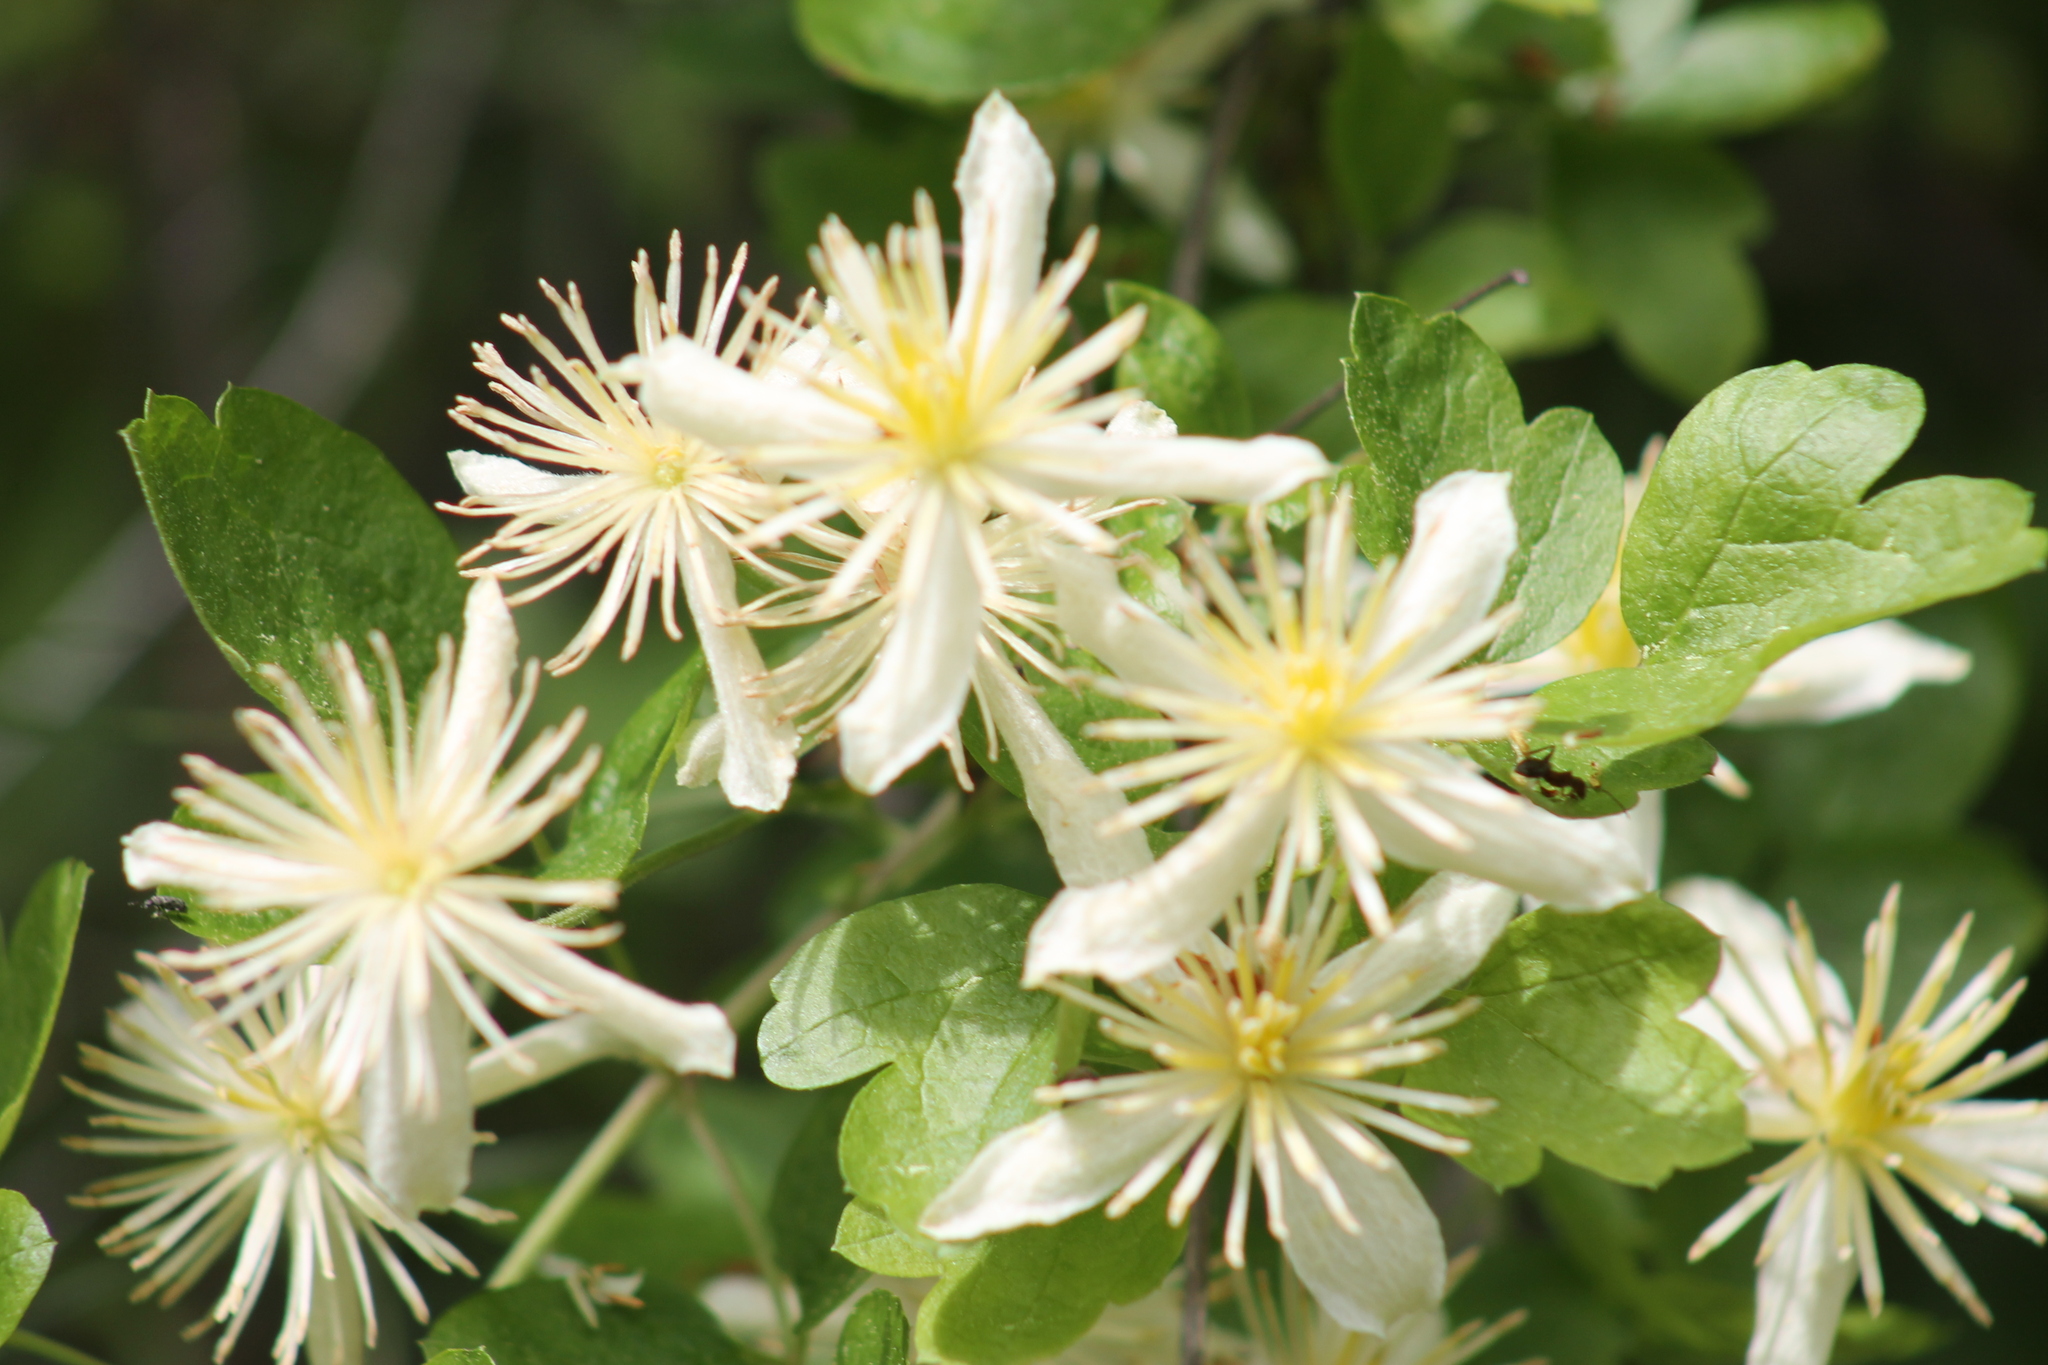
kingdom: Plantae
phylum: Tracheophyta
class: Magnoliopsida
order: Ranunculales
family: Ranunculaceae
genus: Clematis
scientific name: Clematis lasiantha
